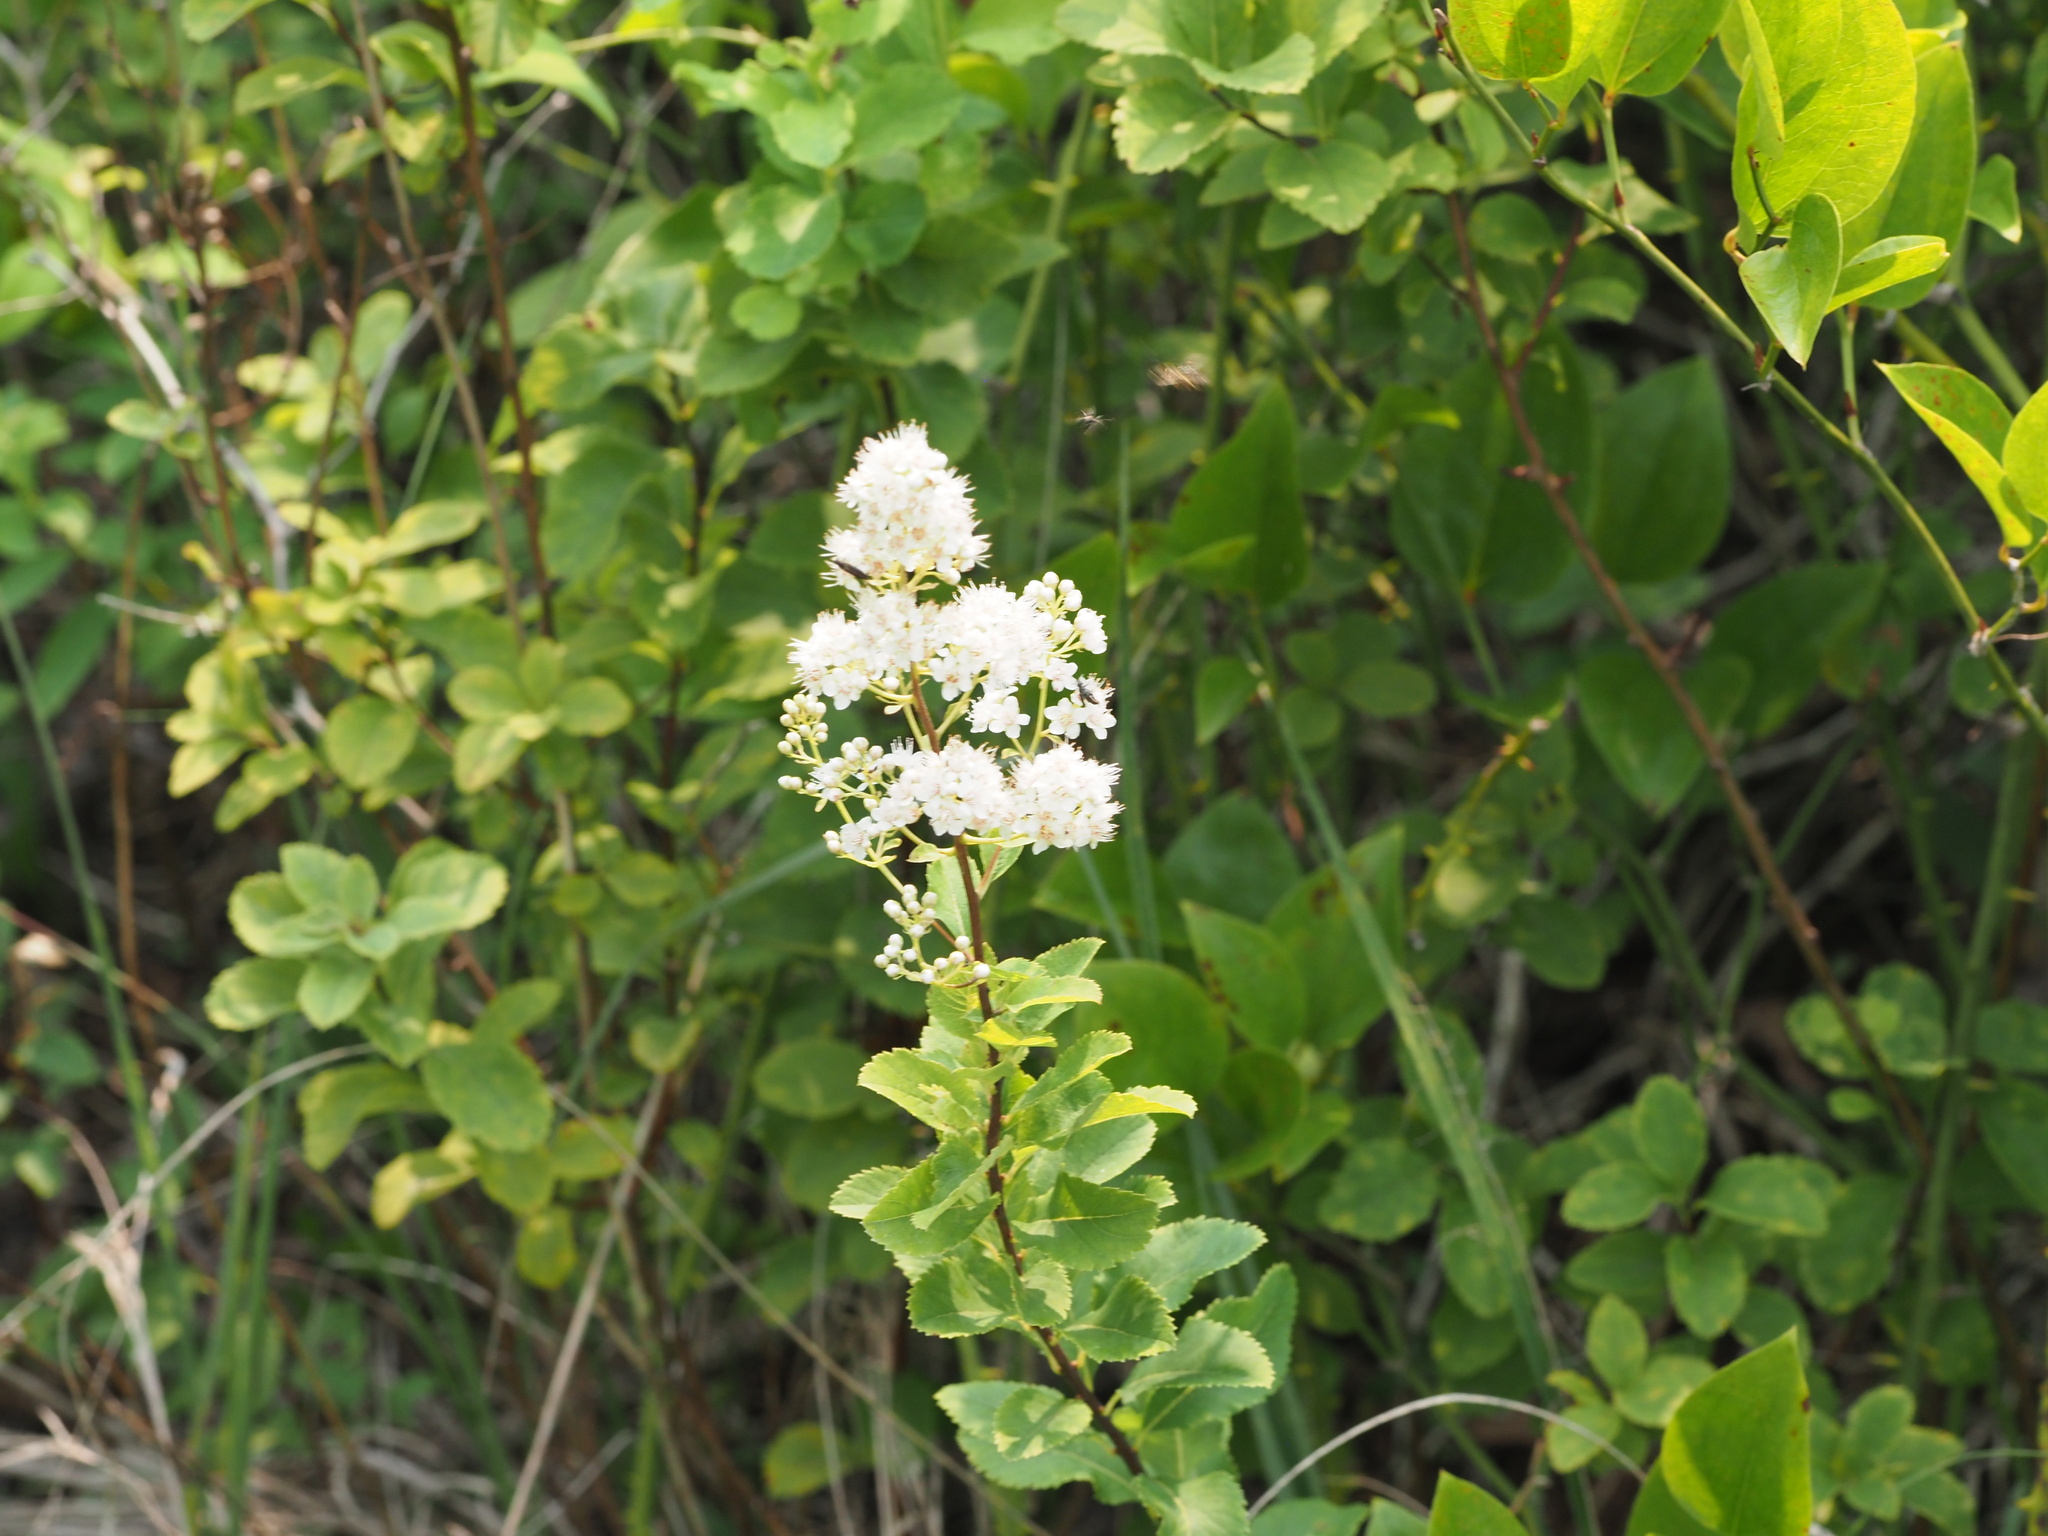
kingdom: Plantae
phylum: Tracheophyta
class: Magnoliopsida
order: Rosales
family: Rosaceae
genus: Spiraea
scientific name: Spiraea alba
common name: Pale bridewort
